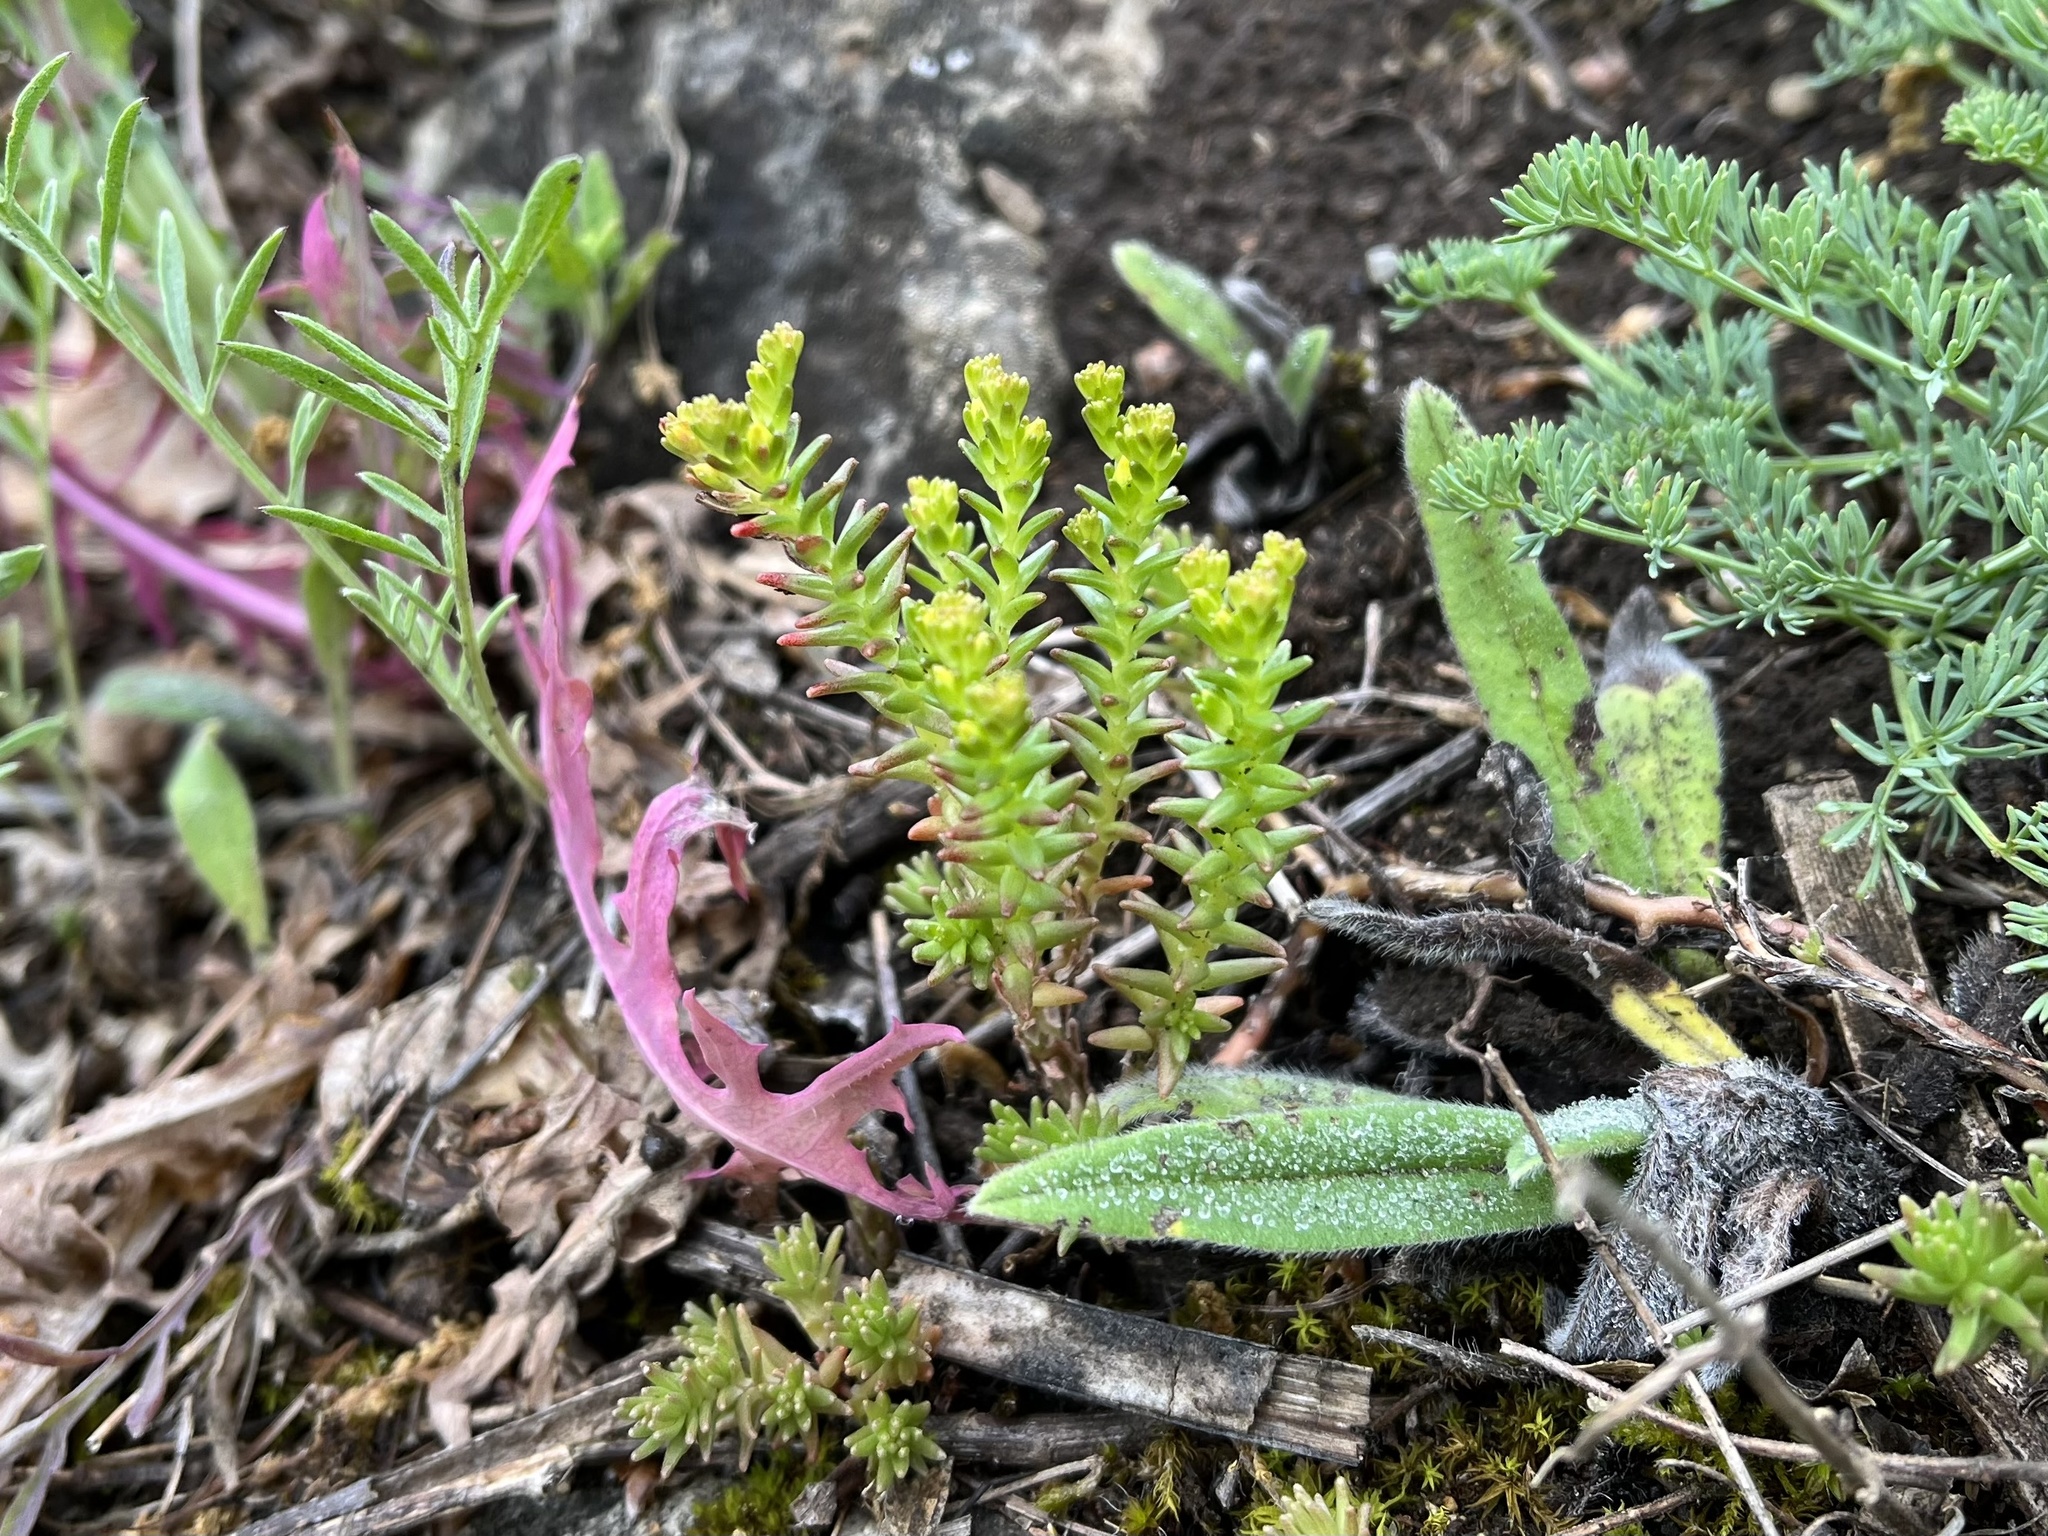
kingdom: Plantae
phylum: Tracheophyta
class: Magnoliopsida
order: Saxifragales
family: Crassulaceae
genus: Sedum
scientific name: Sedum sexangulare
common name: Tasteless stonecrop
